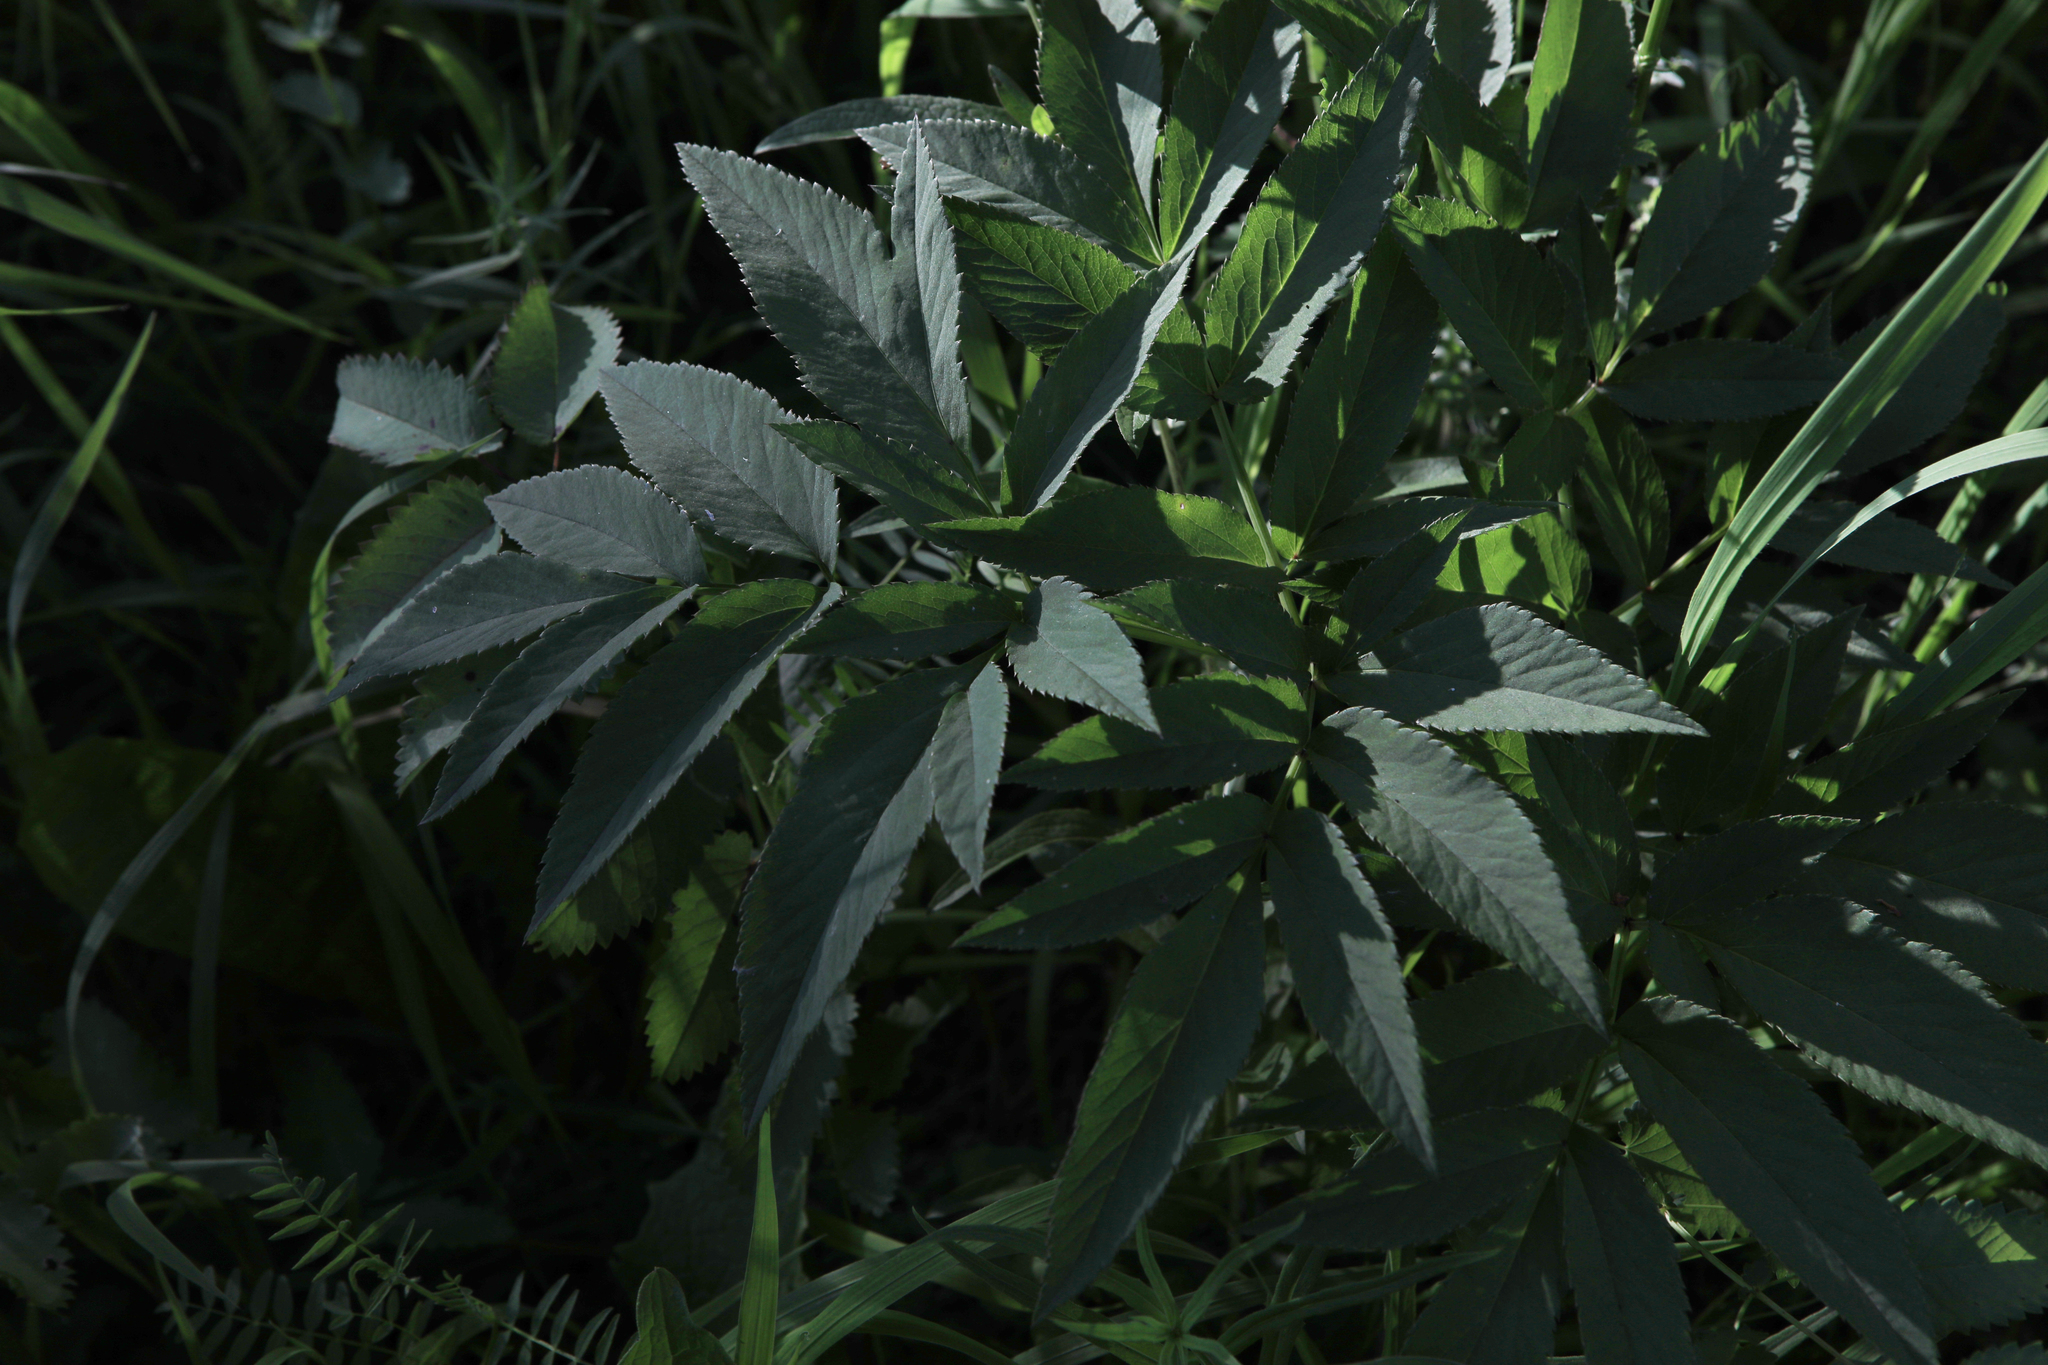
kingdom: Plantae
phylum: Tracheophyta
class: Magnoliopsida
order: Apiales
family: Apiaceae
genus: Angelica
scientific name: Angelica sylvestris
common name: Wild angelica
